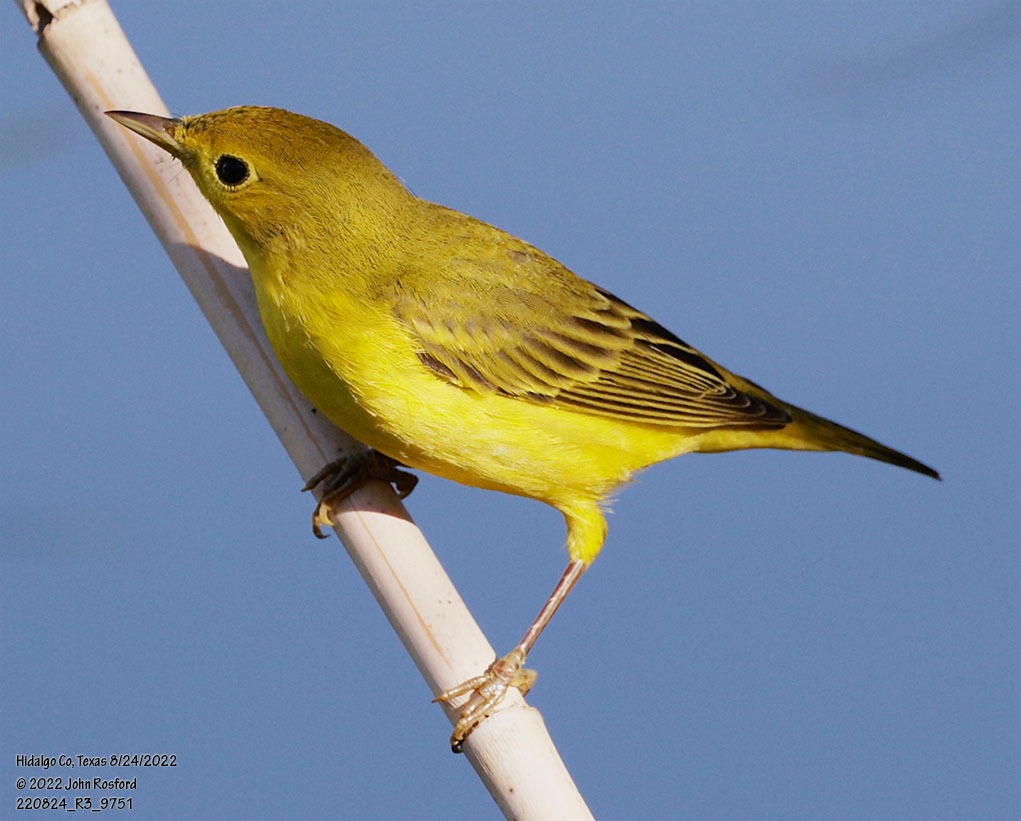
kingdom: Animalia
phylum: Chordata
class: Aves
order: Passeriformes
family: Parulidae
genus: Setophaga
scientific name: Setophaga petechia
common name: Yellow warbler
